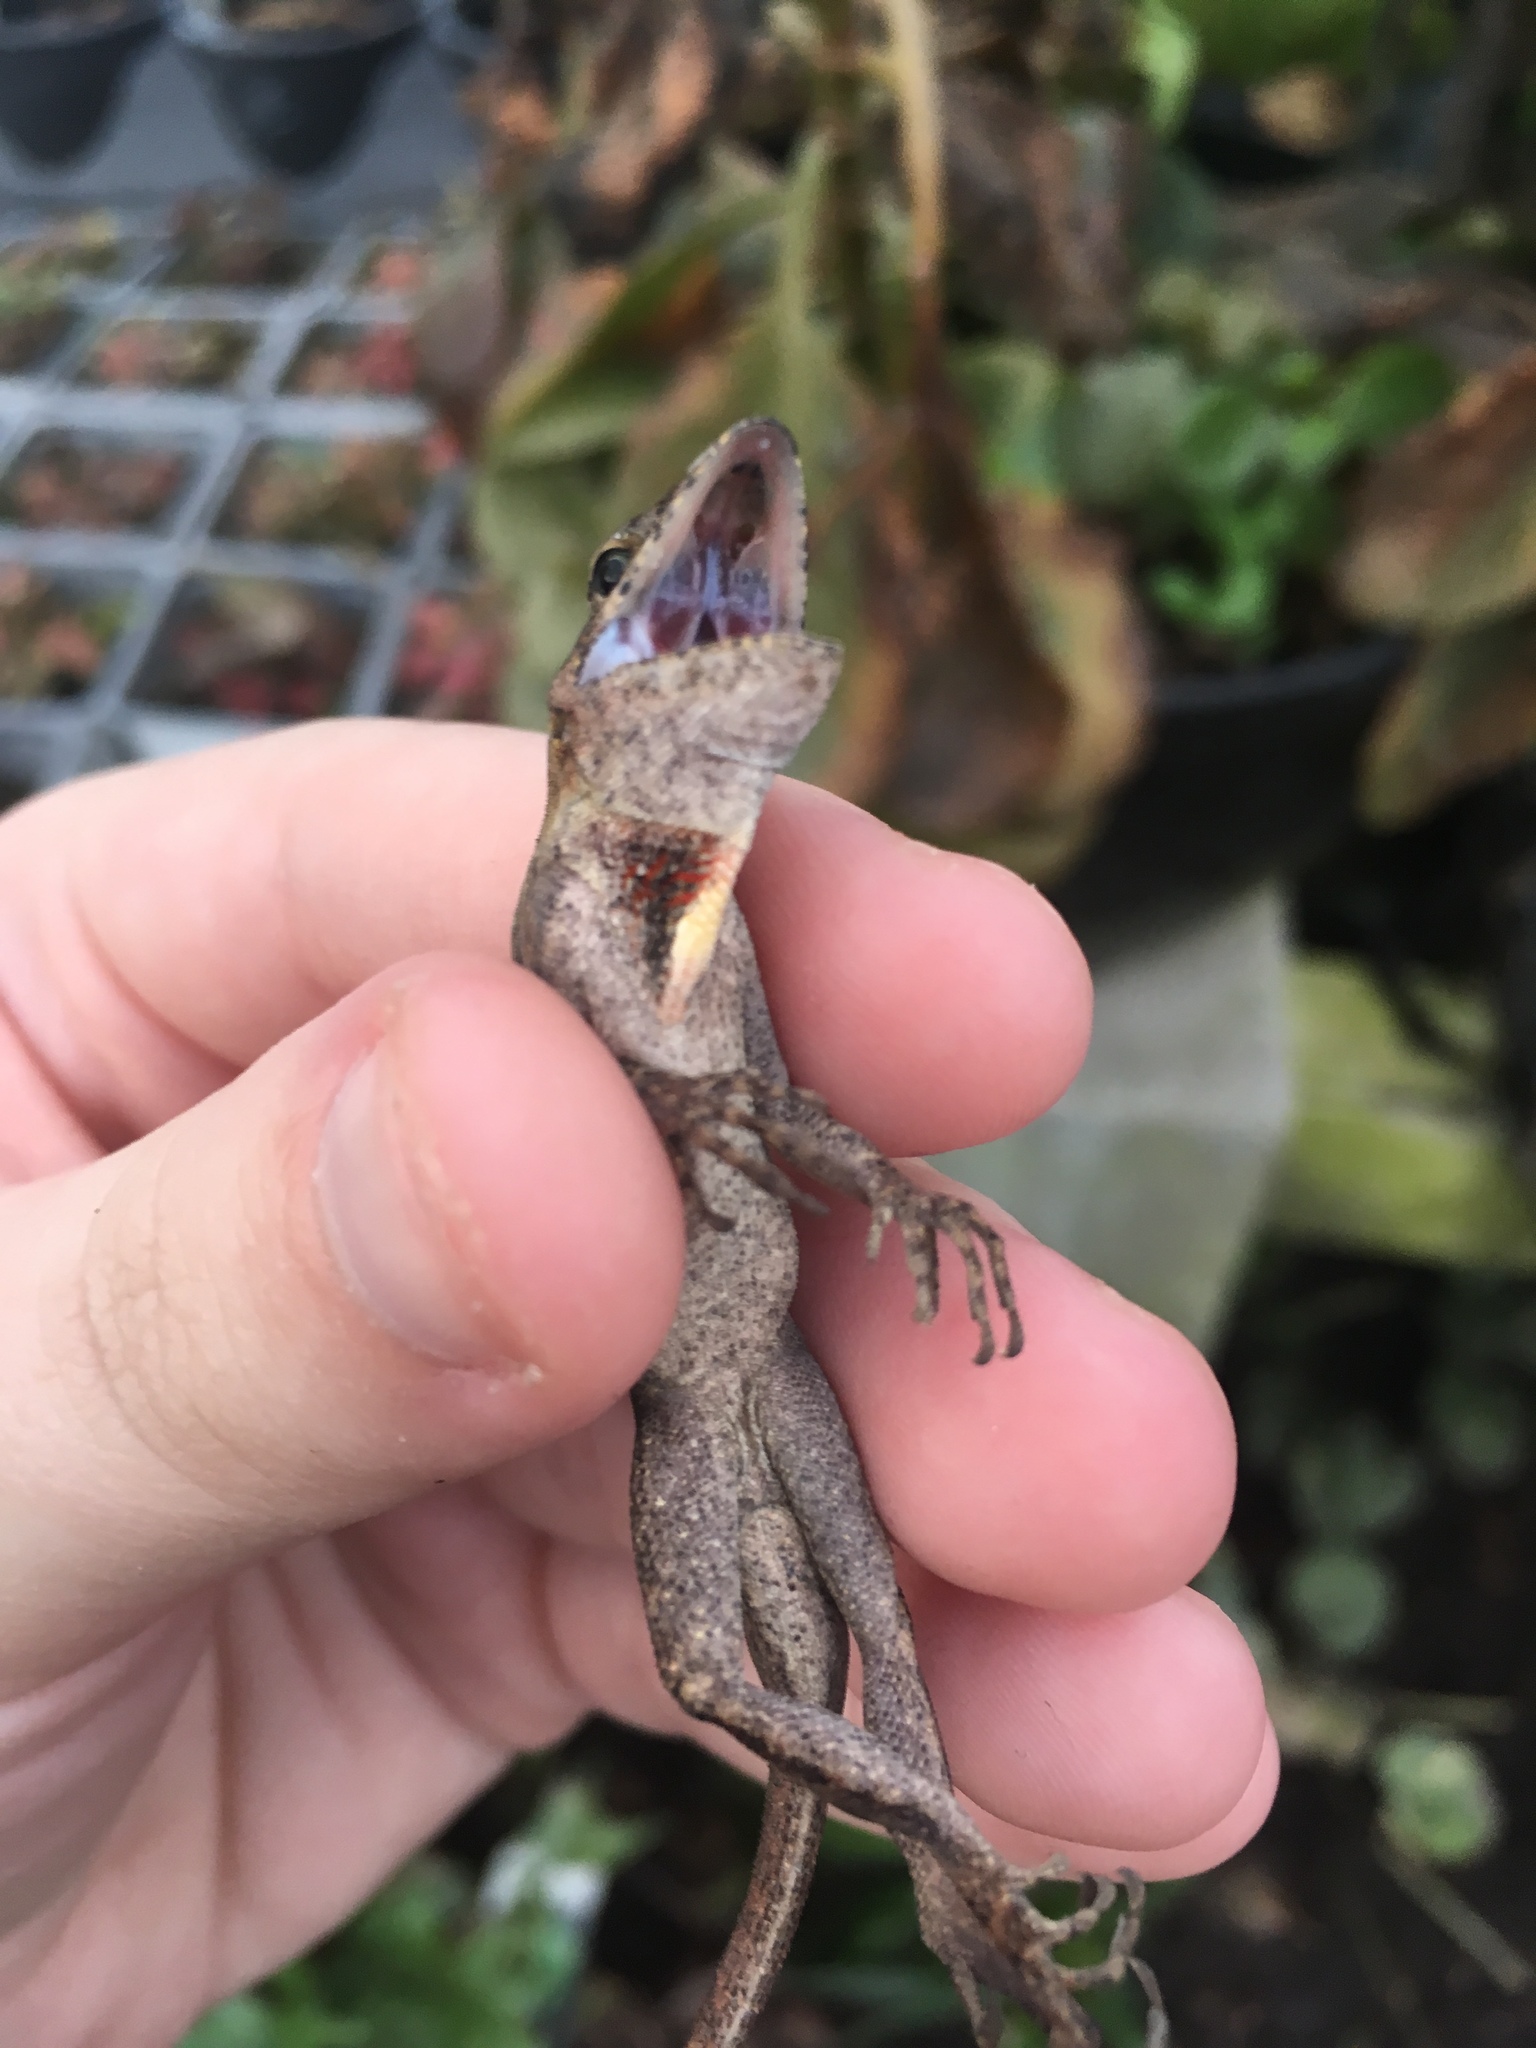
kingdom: Animalia
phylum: Chordata
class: Squamata
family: Dactyloidae
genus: Anolis
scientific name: Anolis sagrei
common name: Brown anole
